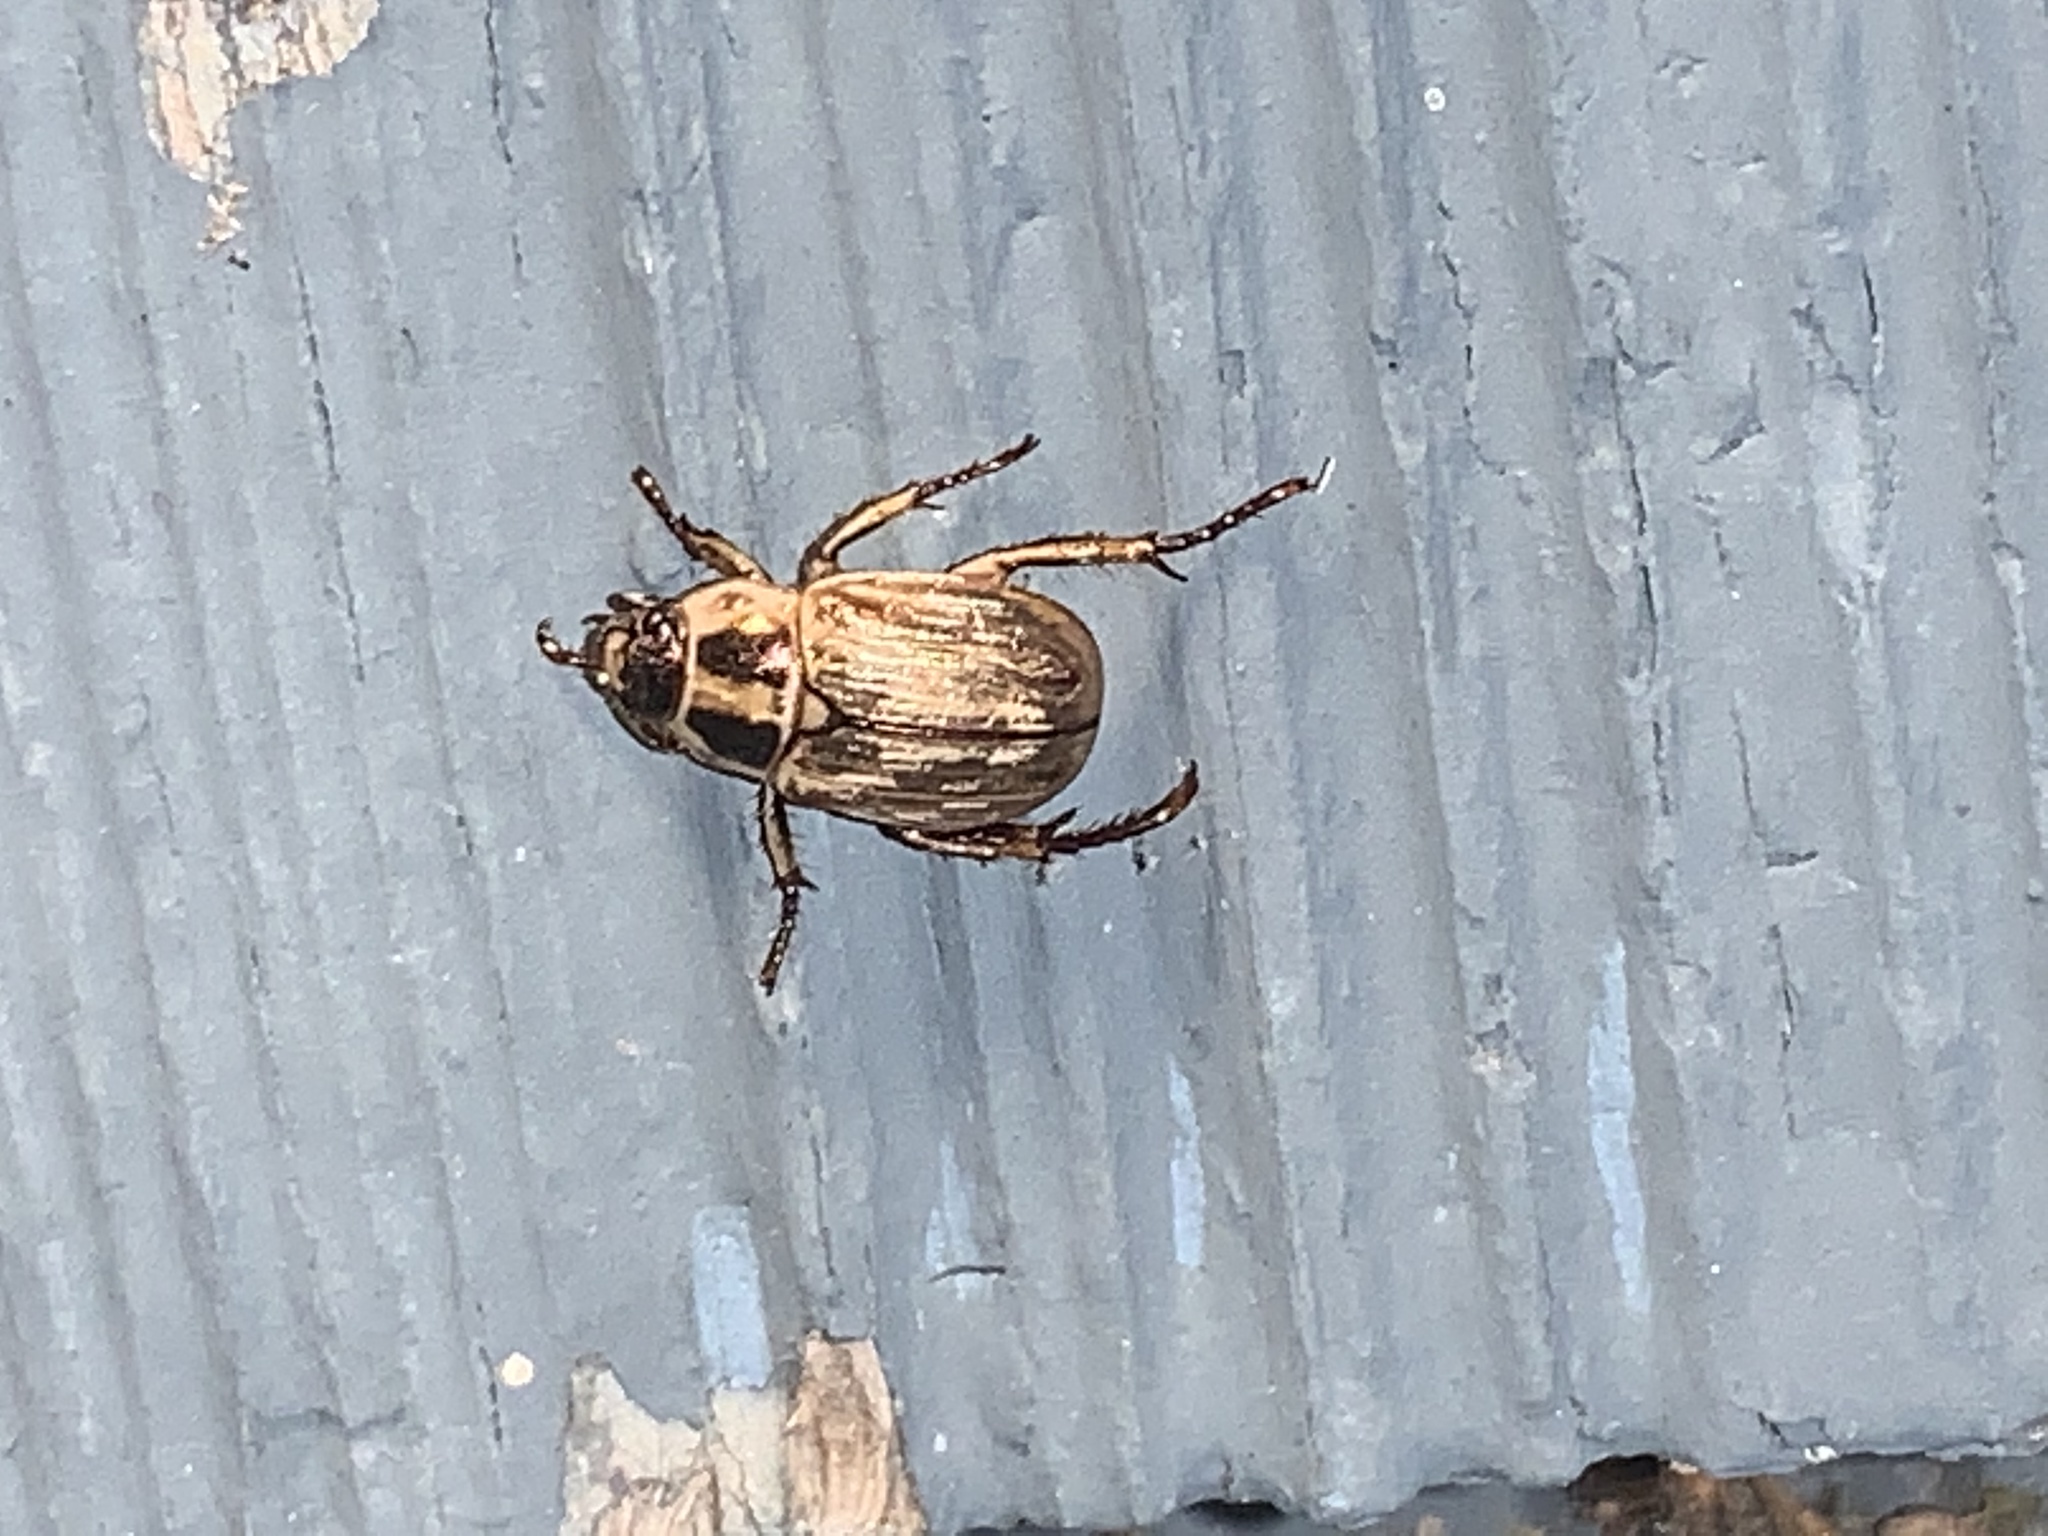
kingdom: Animalia
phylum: Arthropoda
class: Insecta
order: Coleoptera
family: Scarabaeidae
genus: Exomala
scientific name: Exomala orientalis
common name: Oriental beetle
